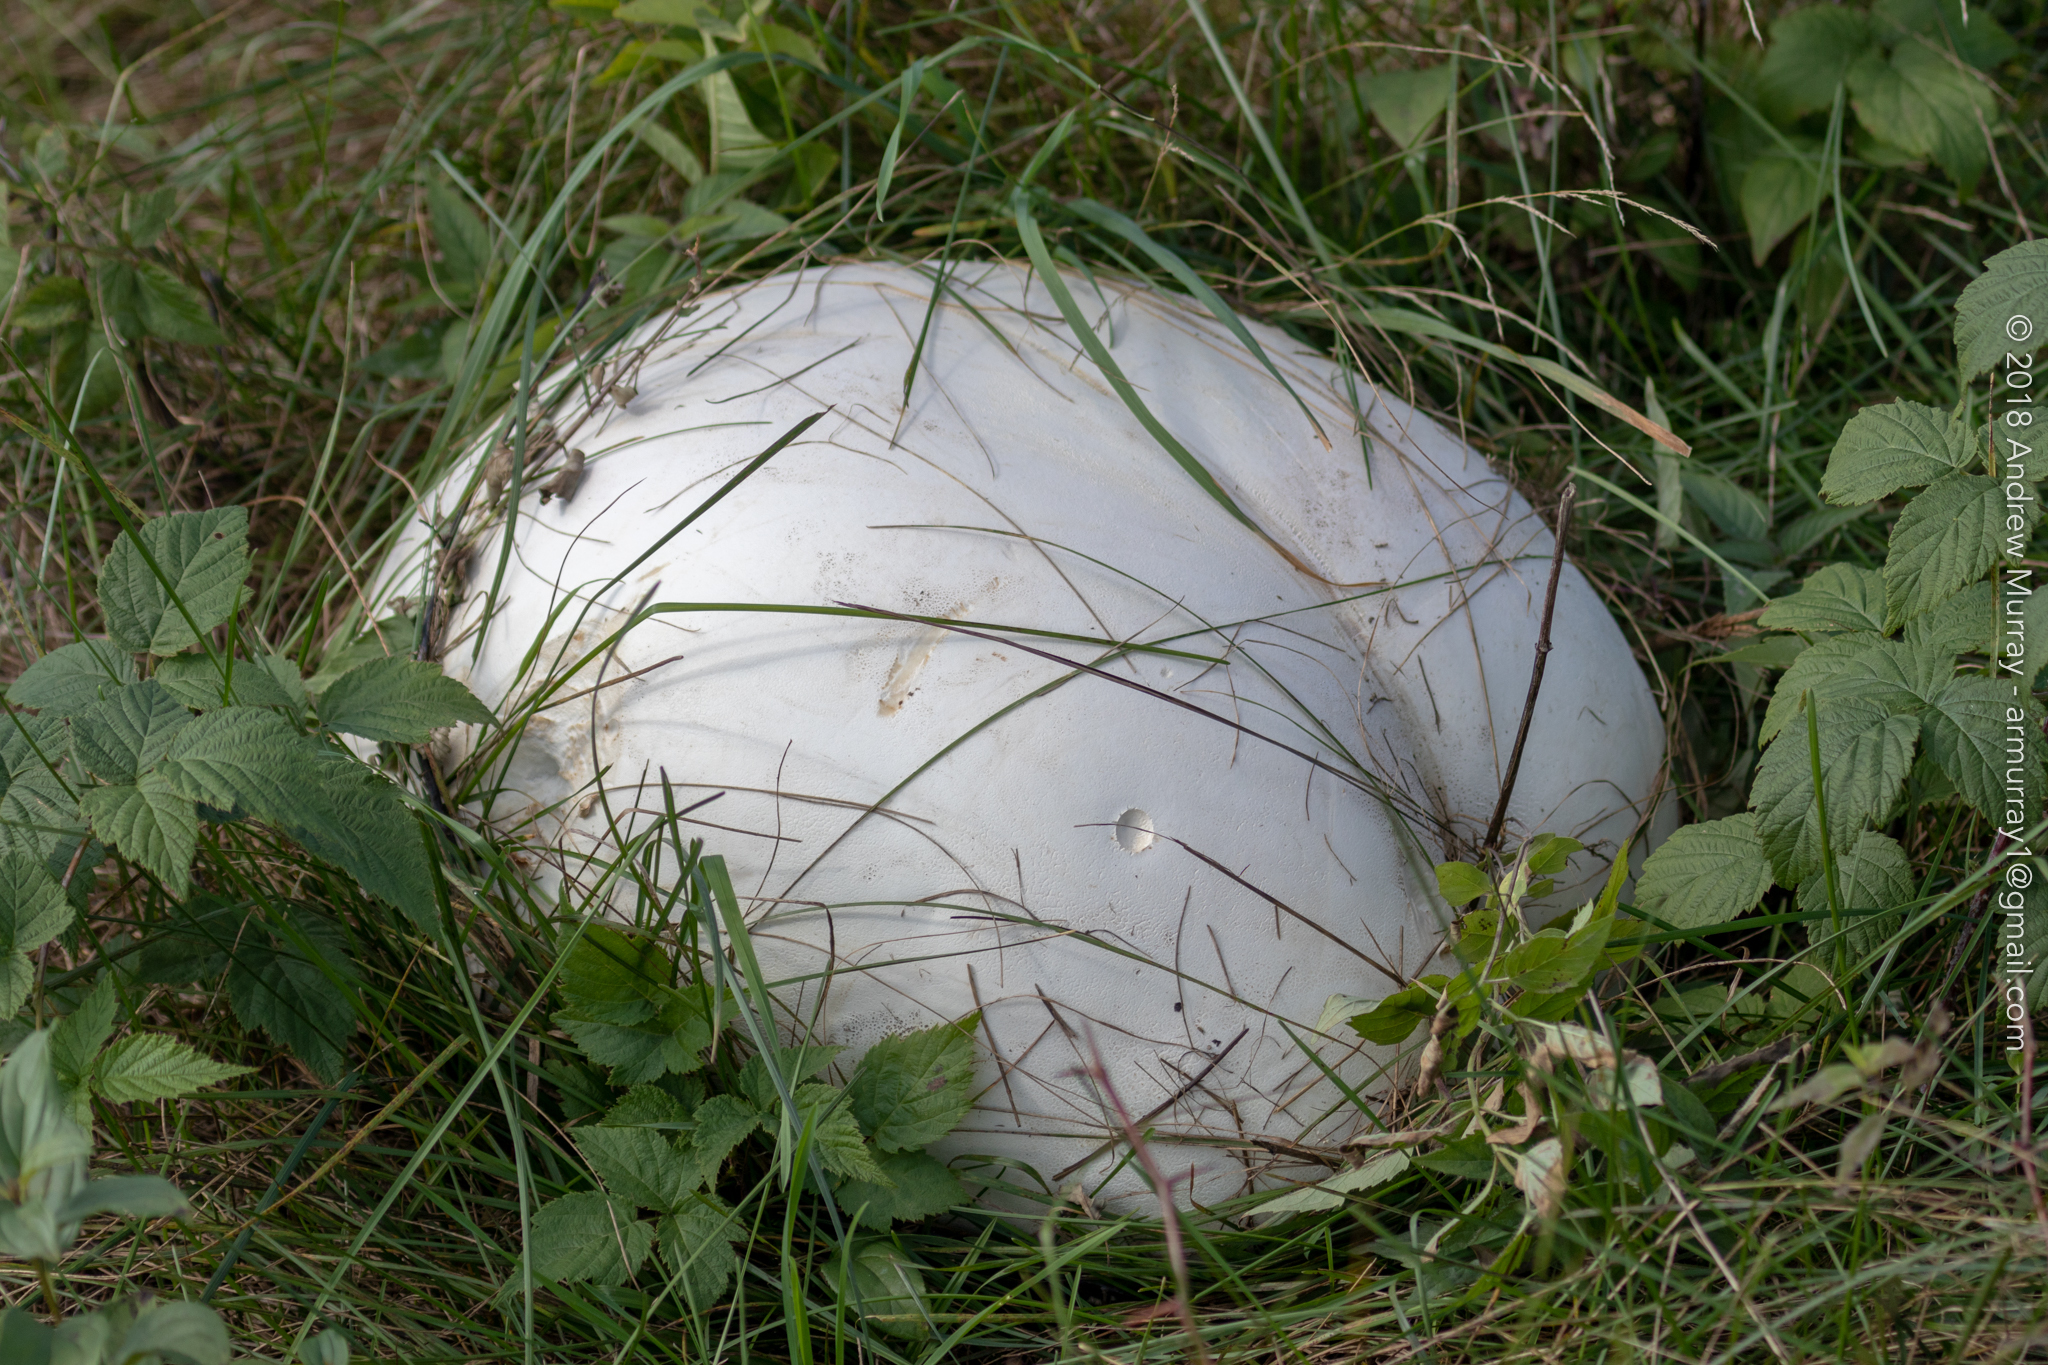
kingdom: Fungi
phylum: Basidiomycota
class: Agaricomycetes
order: Agaricales
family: Lycoperdaceae
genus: Calvatia
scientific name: Calvatia gigantea
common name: Giant puffball
